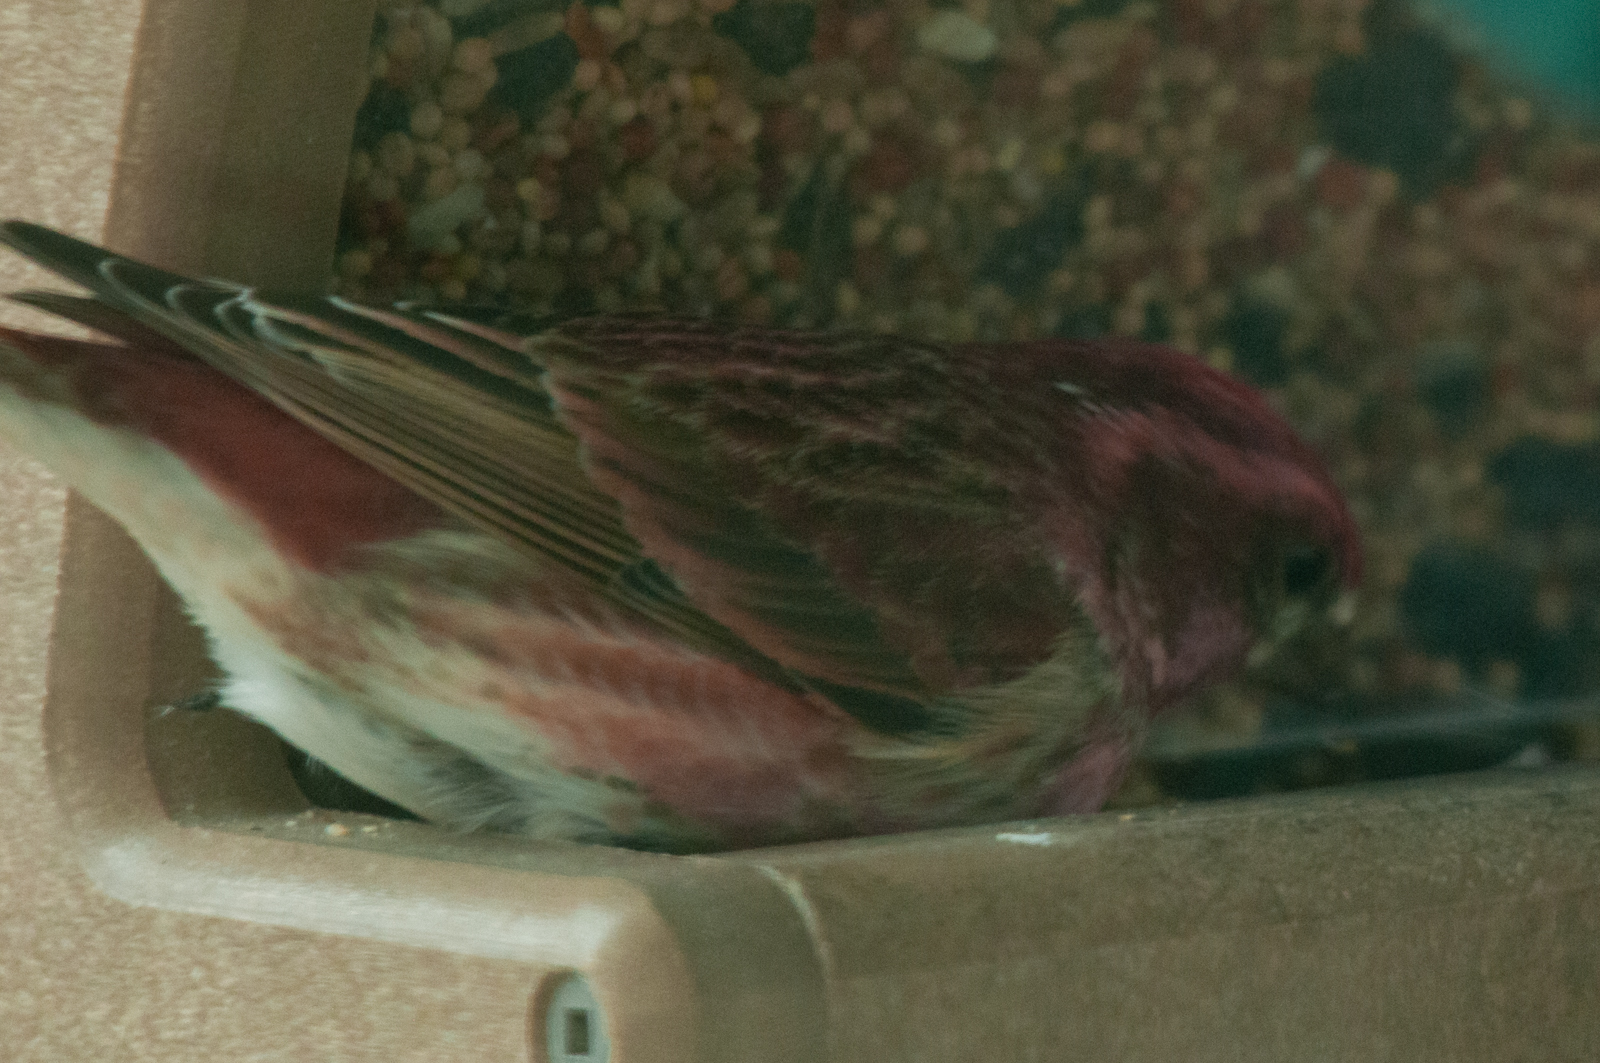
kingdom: Animalia
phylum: Chordata
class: Aves
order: Passeriformes
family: Fringillidae
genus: Haemorhous
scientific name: Haemorhous purpureus
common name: Purple finch
